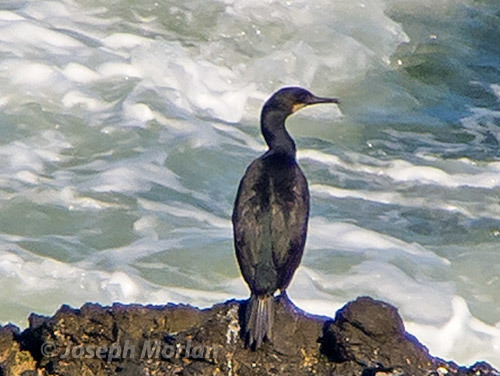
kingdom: Animalia
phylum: Chordata
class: Aves
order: Suliformes
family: Phalacrocoracidae
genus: Urile
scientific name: Urile penicillatus
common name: Brandt's cormorant
